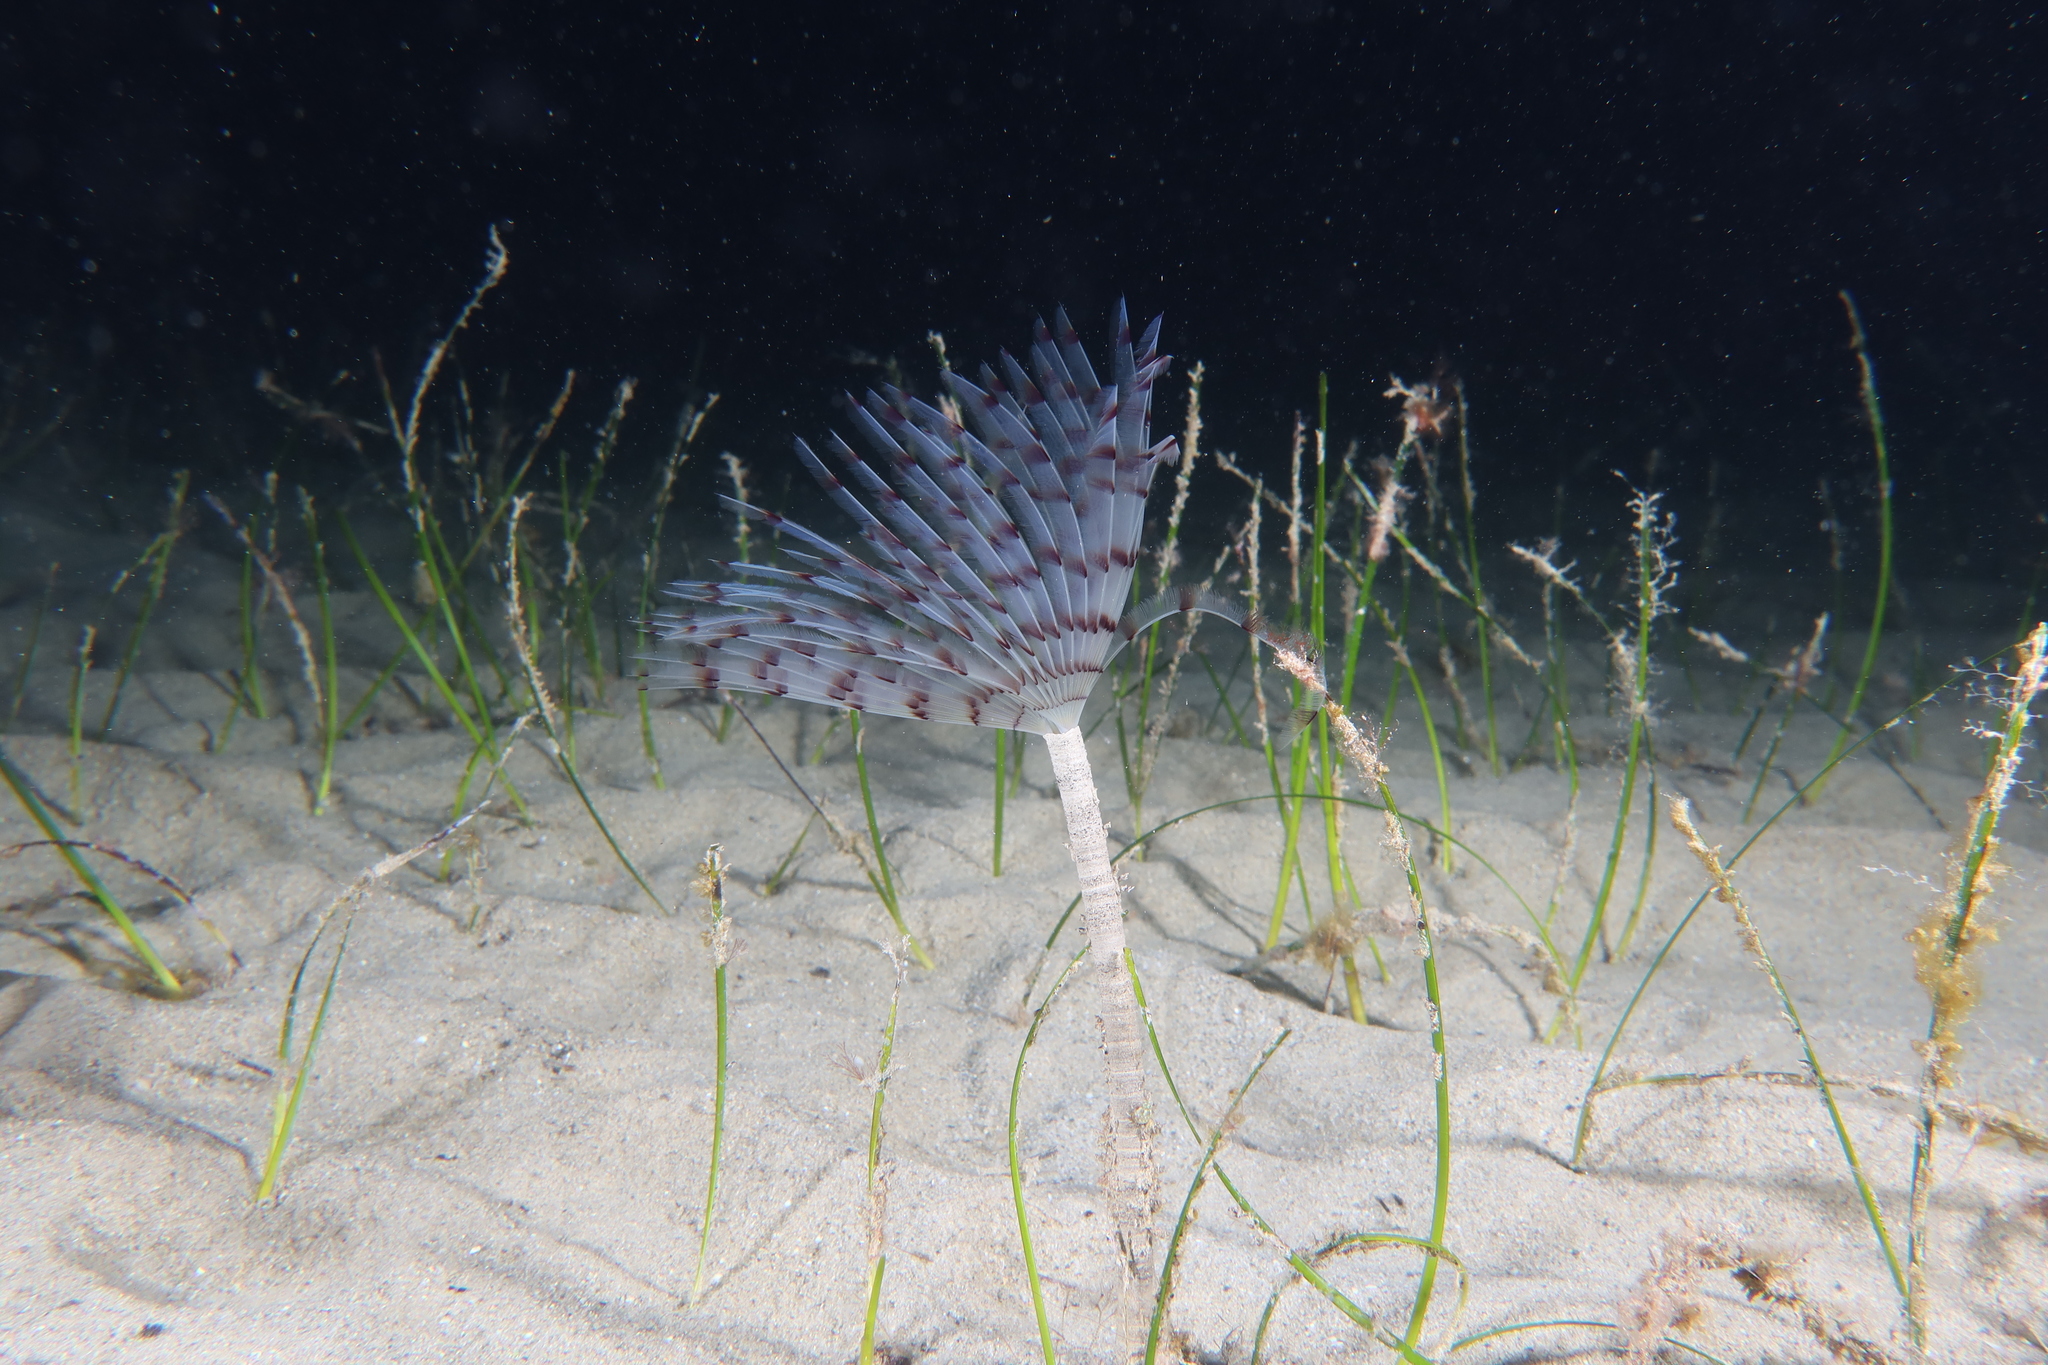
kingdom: Animalia
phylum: Annelida
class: Polychaeta
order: Sabellida
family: Sabellidae
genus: Sabella
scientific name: Sabella pavonina
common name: Peacock worm
